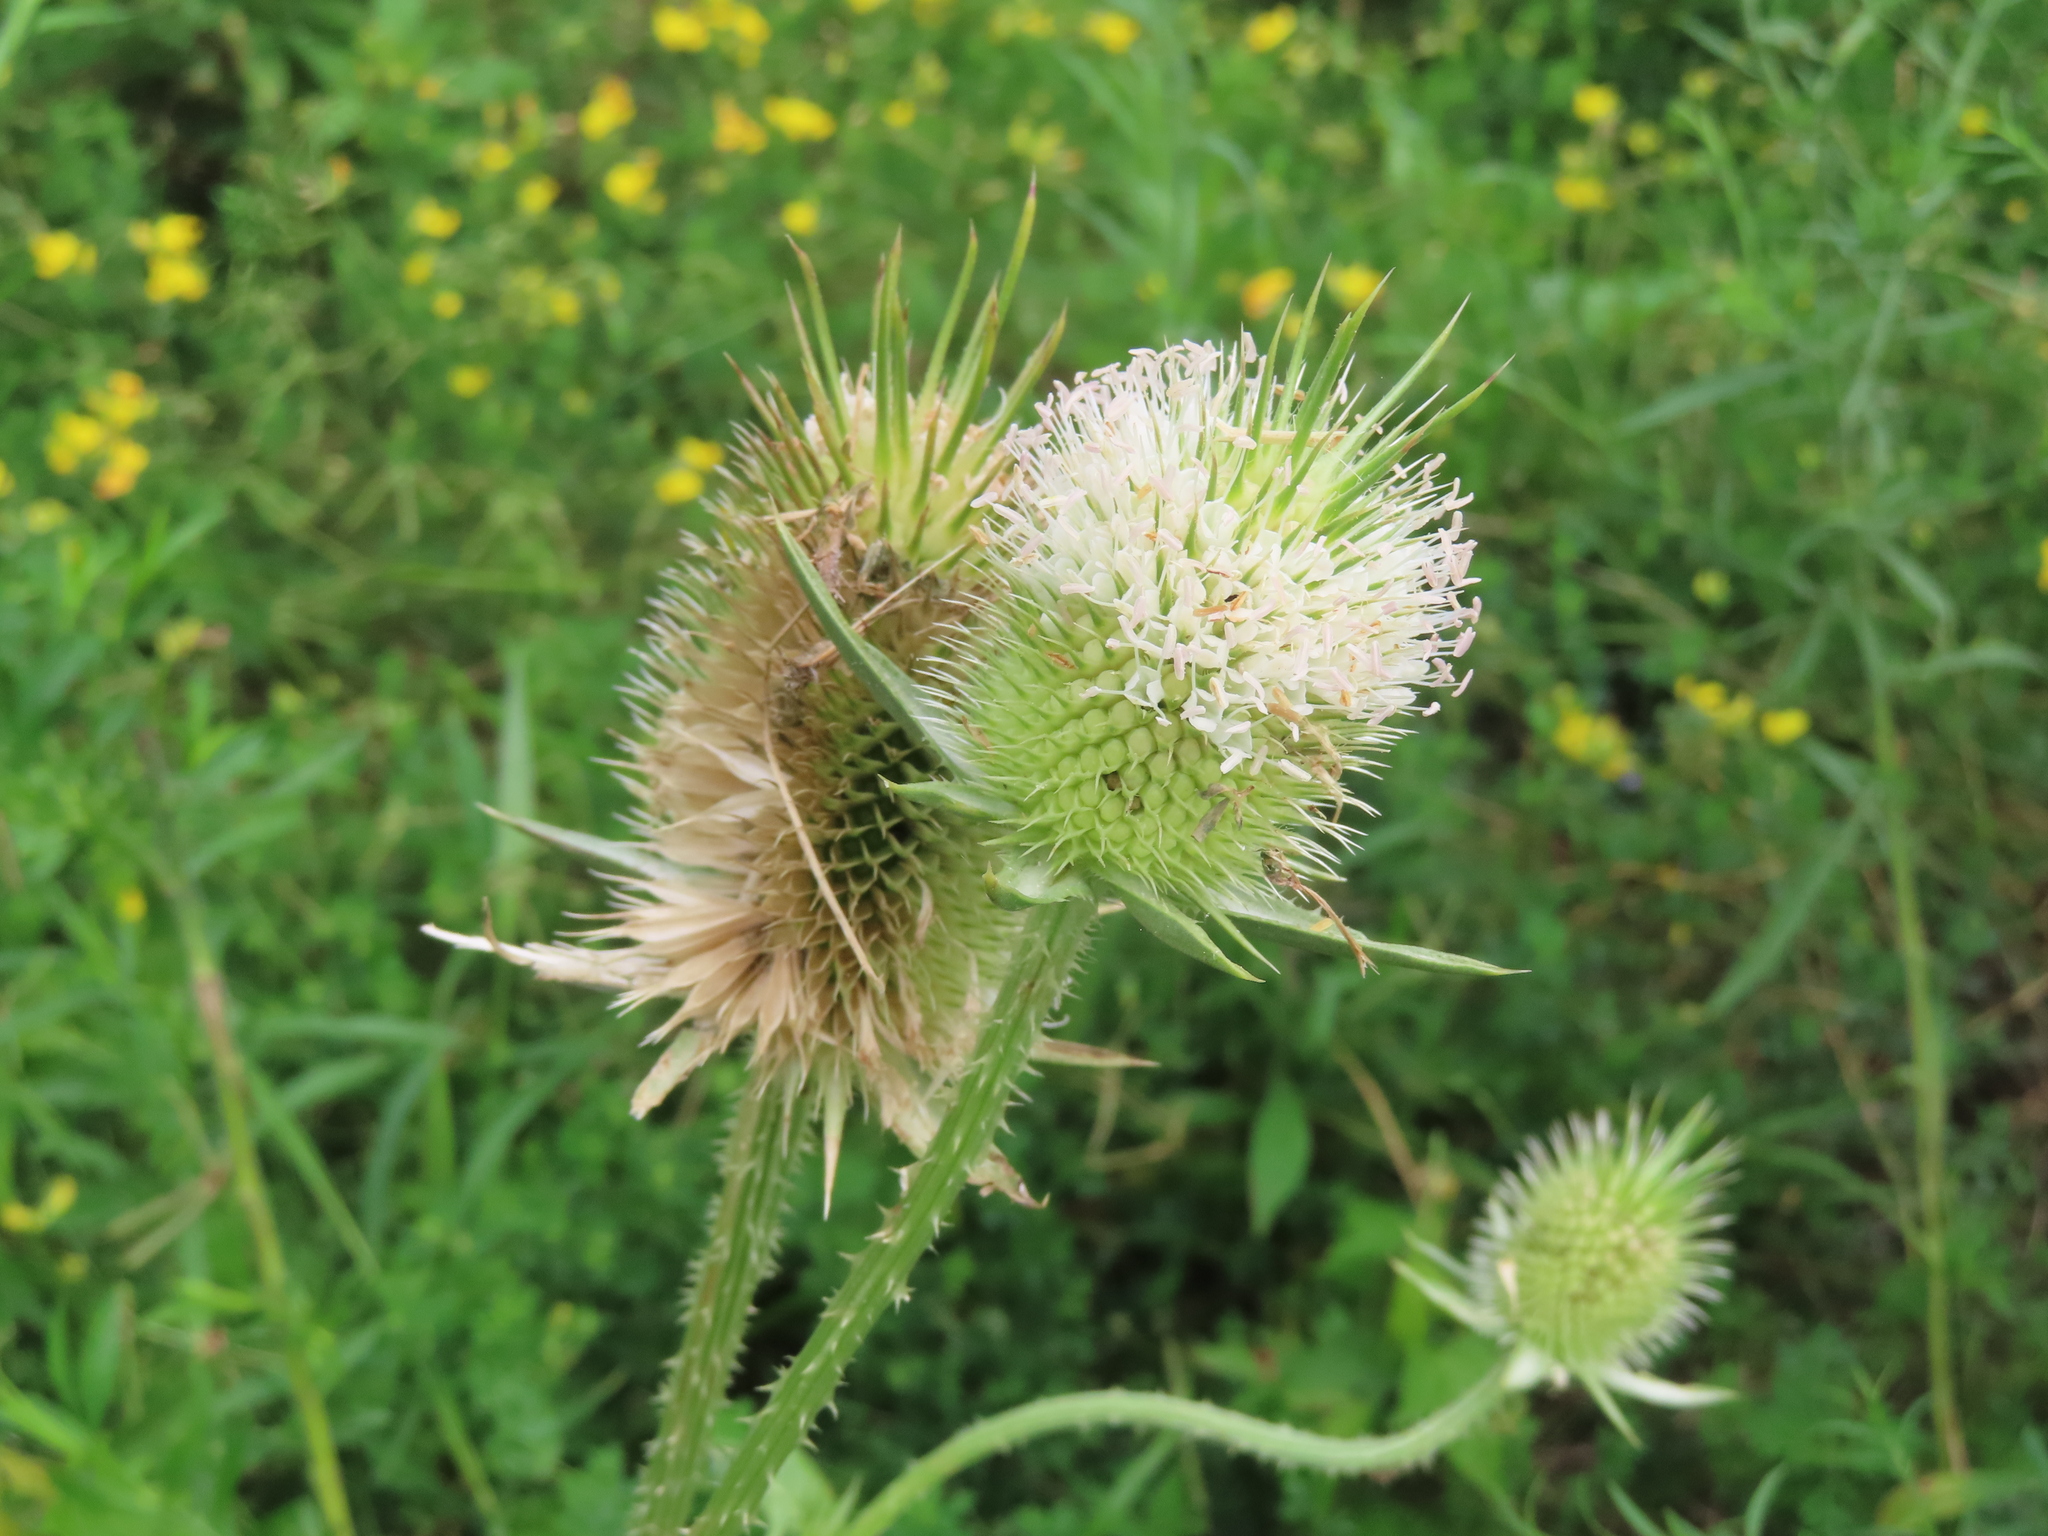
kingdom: Plantae
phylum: Tracheophyta
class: Magnoliopsida
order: Dipsacales
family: Caprifoliaceae
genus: Dipsacus
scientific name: Dipsacus laciniatus
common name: Cut-leaved teasel
